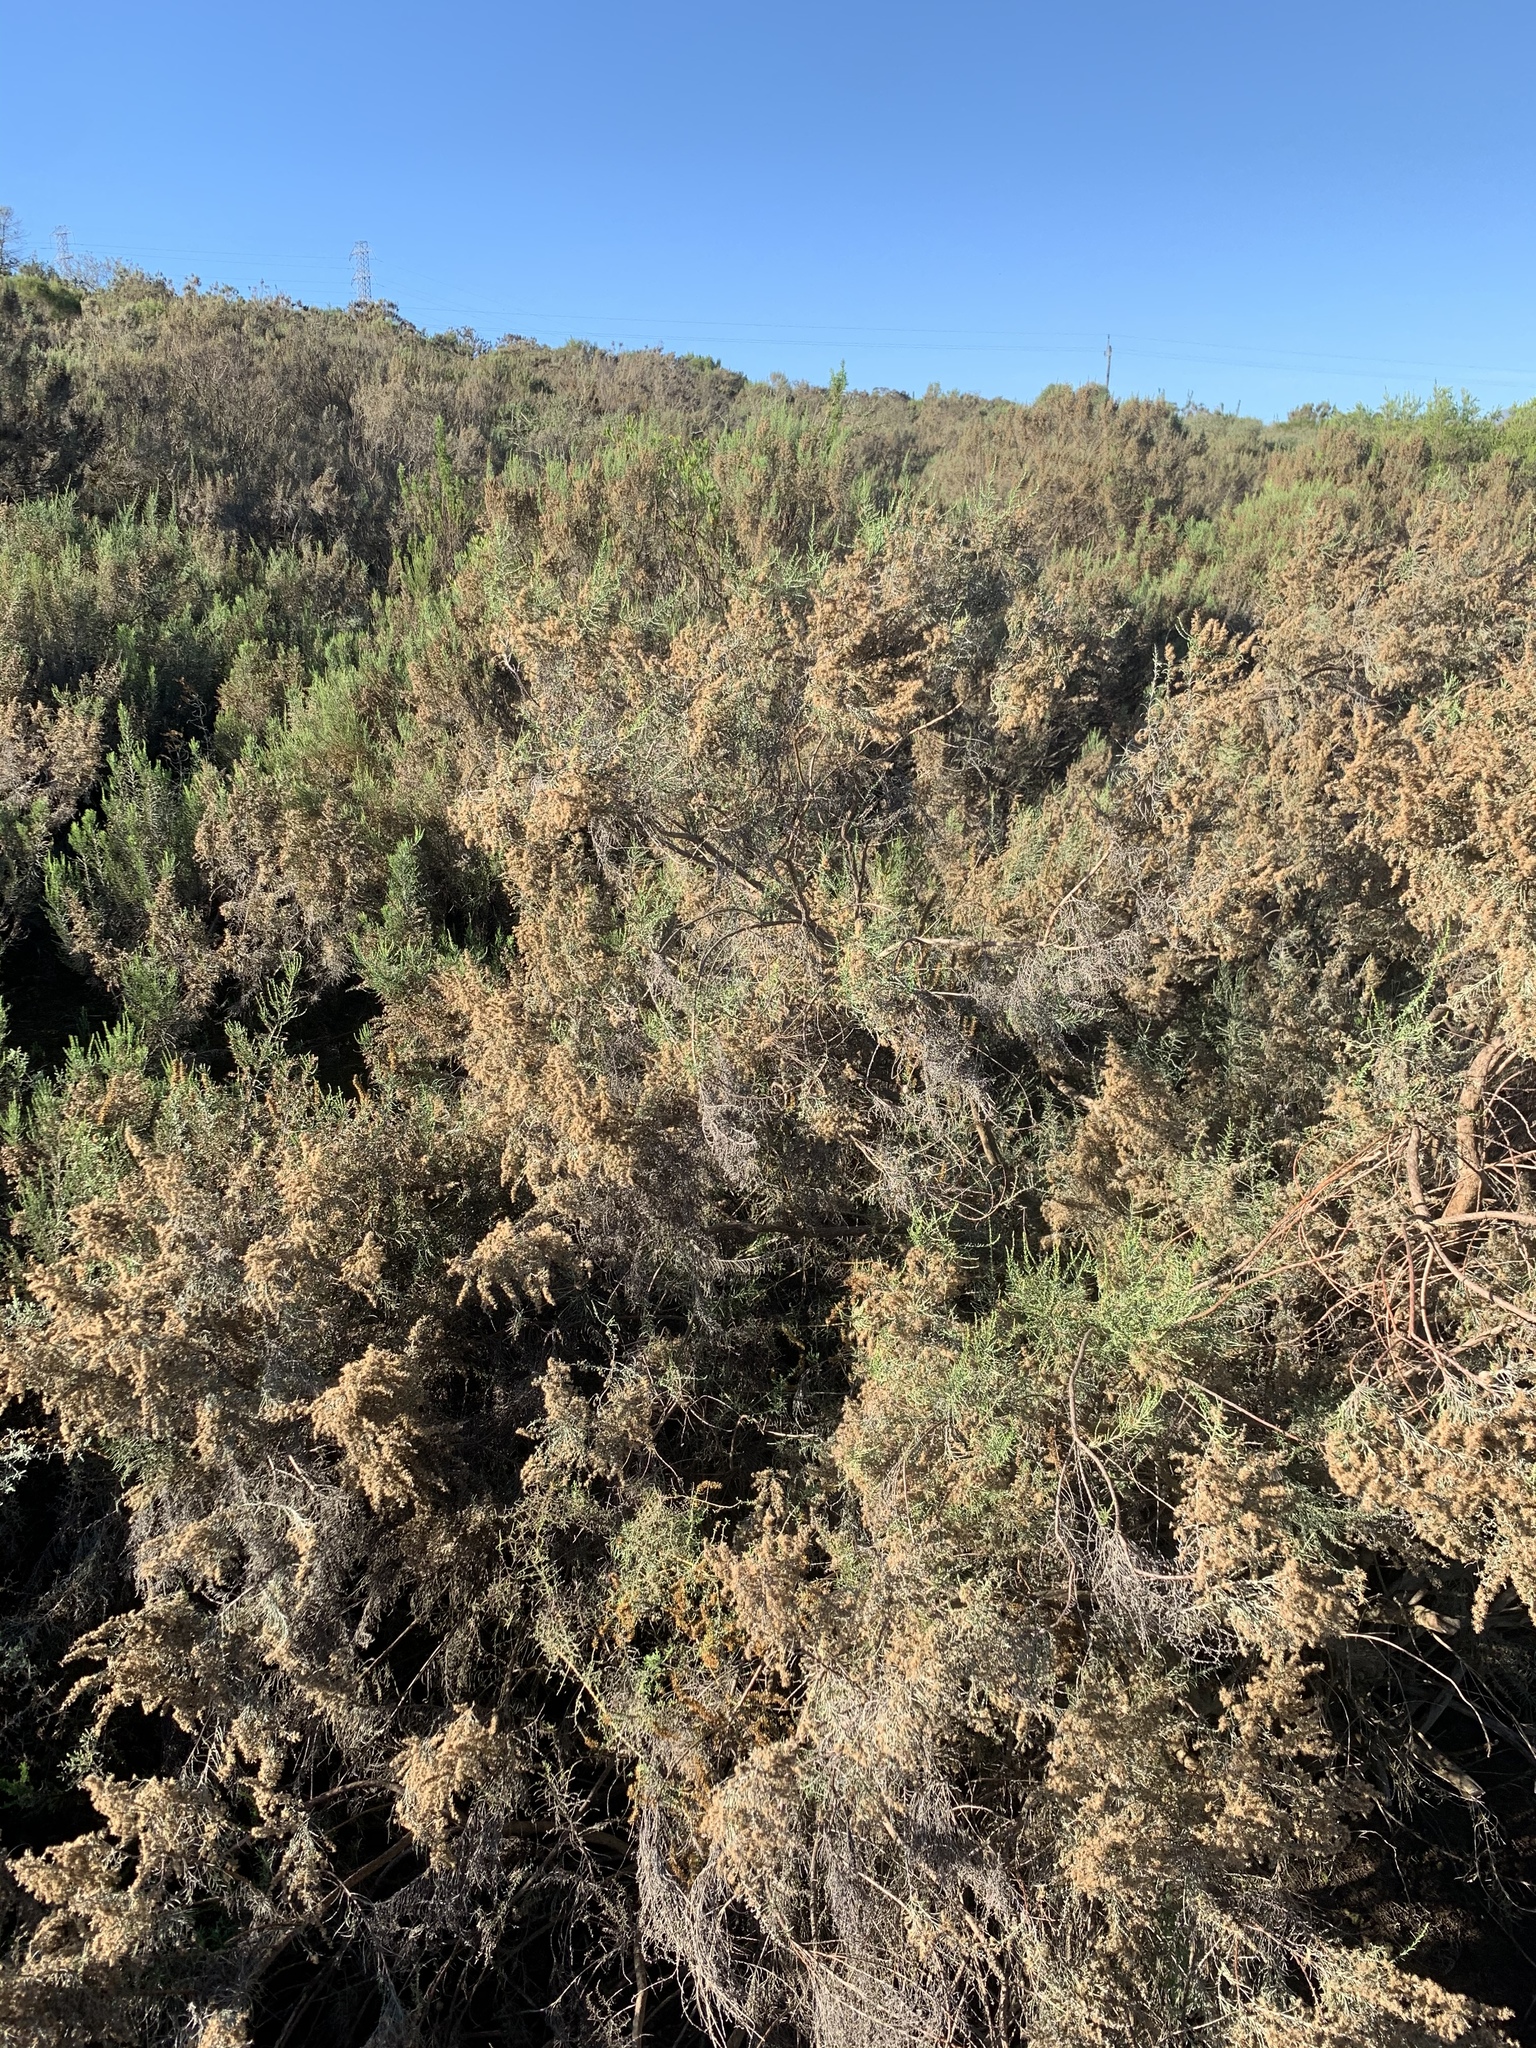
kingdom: Plantae
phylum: Tracheophyta
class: Magnoliopsida
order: Asterales
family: Asteraceae
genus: Dicerothamnus
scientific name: Dicerothamnus rhinocerotis
